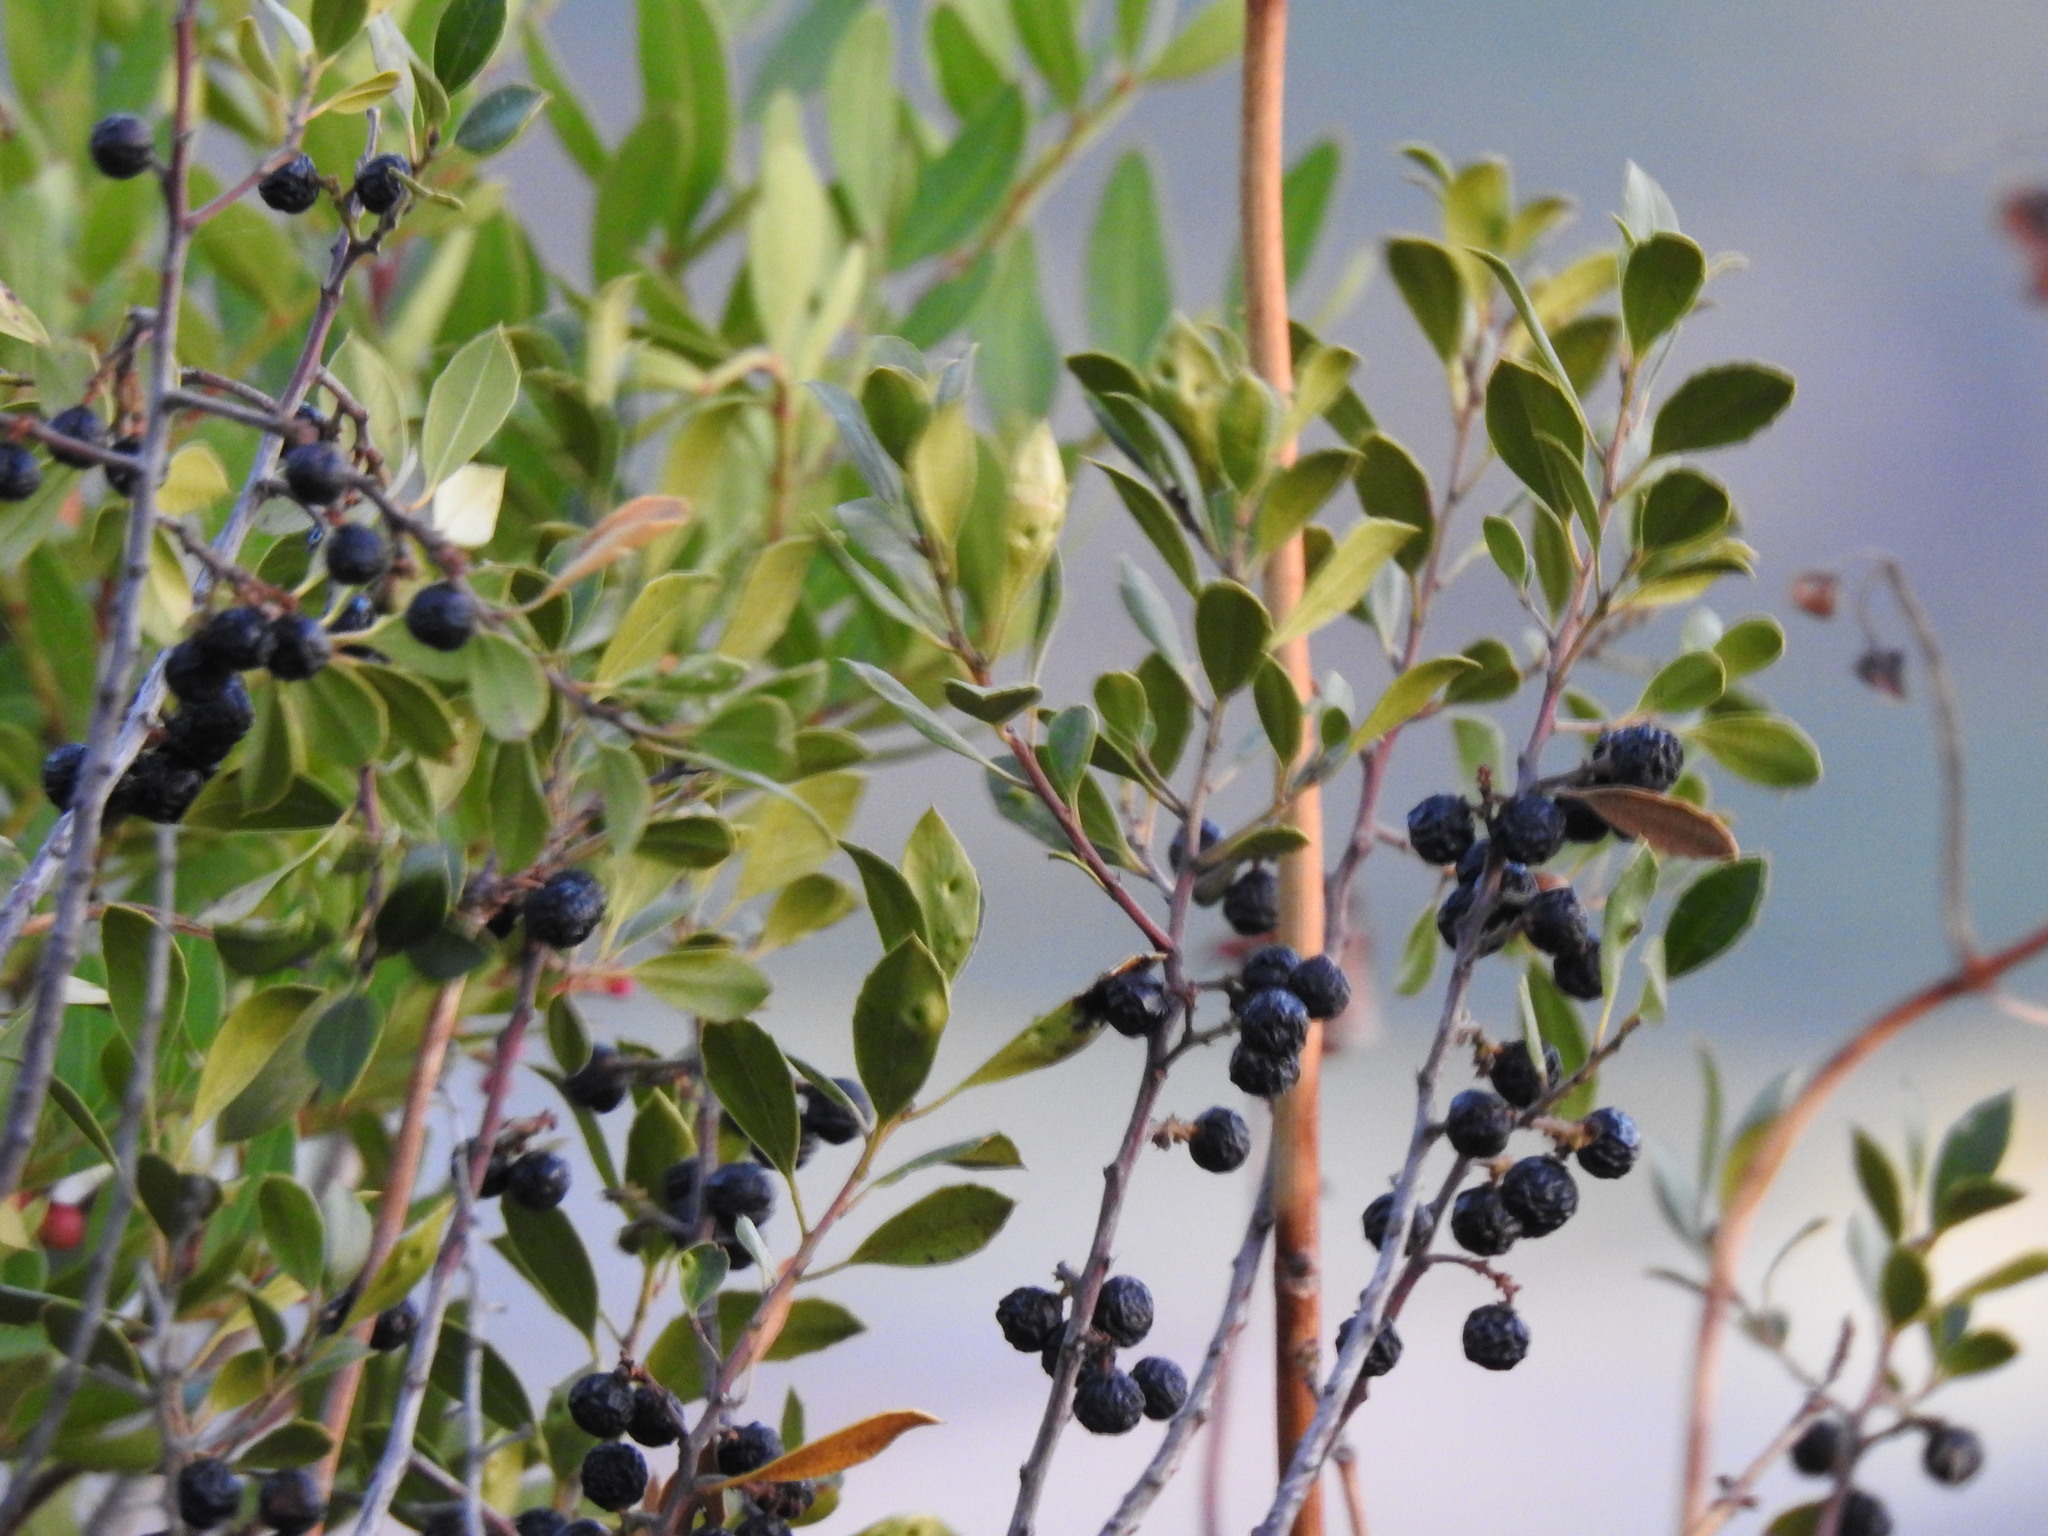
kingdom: Plantae
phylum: Tracheophyta
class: Magnoliopsida
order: Rosales
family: Rhamnaceae
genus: Rhamnus
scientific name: Rhamnus alaternus
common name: Mediterranean buckthorn
